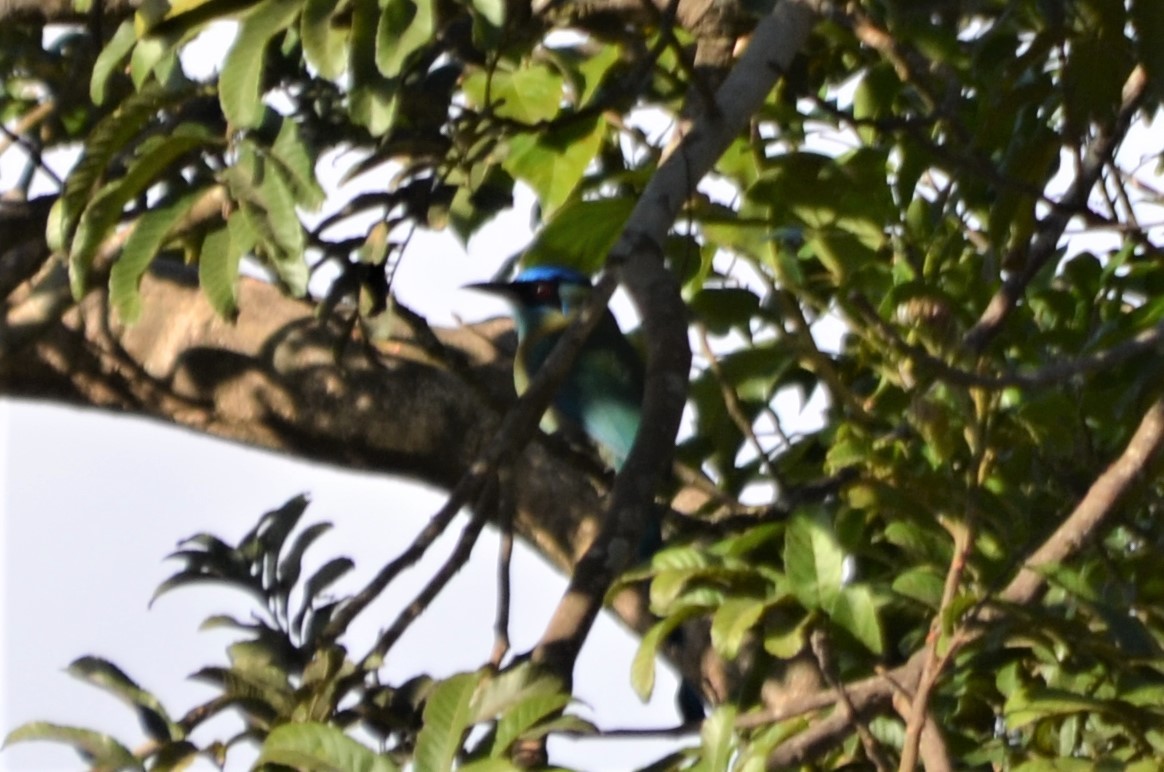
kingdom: Animalia
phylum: Chordata
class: Aves
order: Coraciiformes
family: Momotidae
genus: Momotus
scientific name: Momotus lessonii
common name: Lesson's motmot
